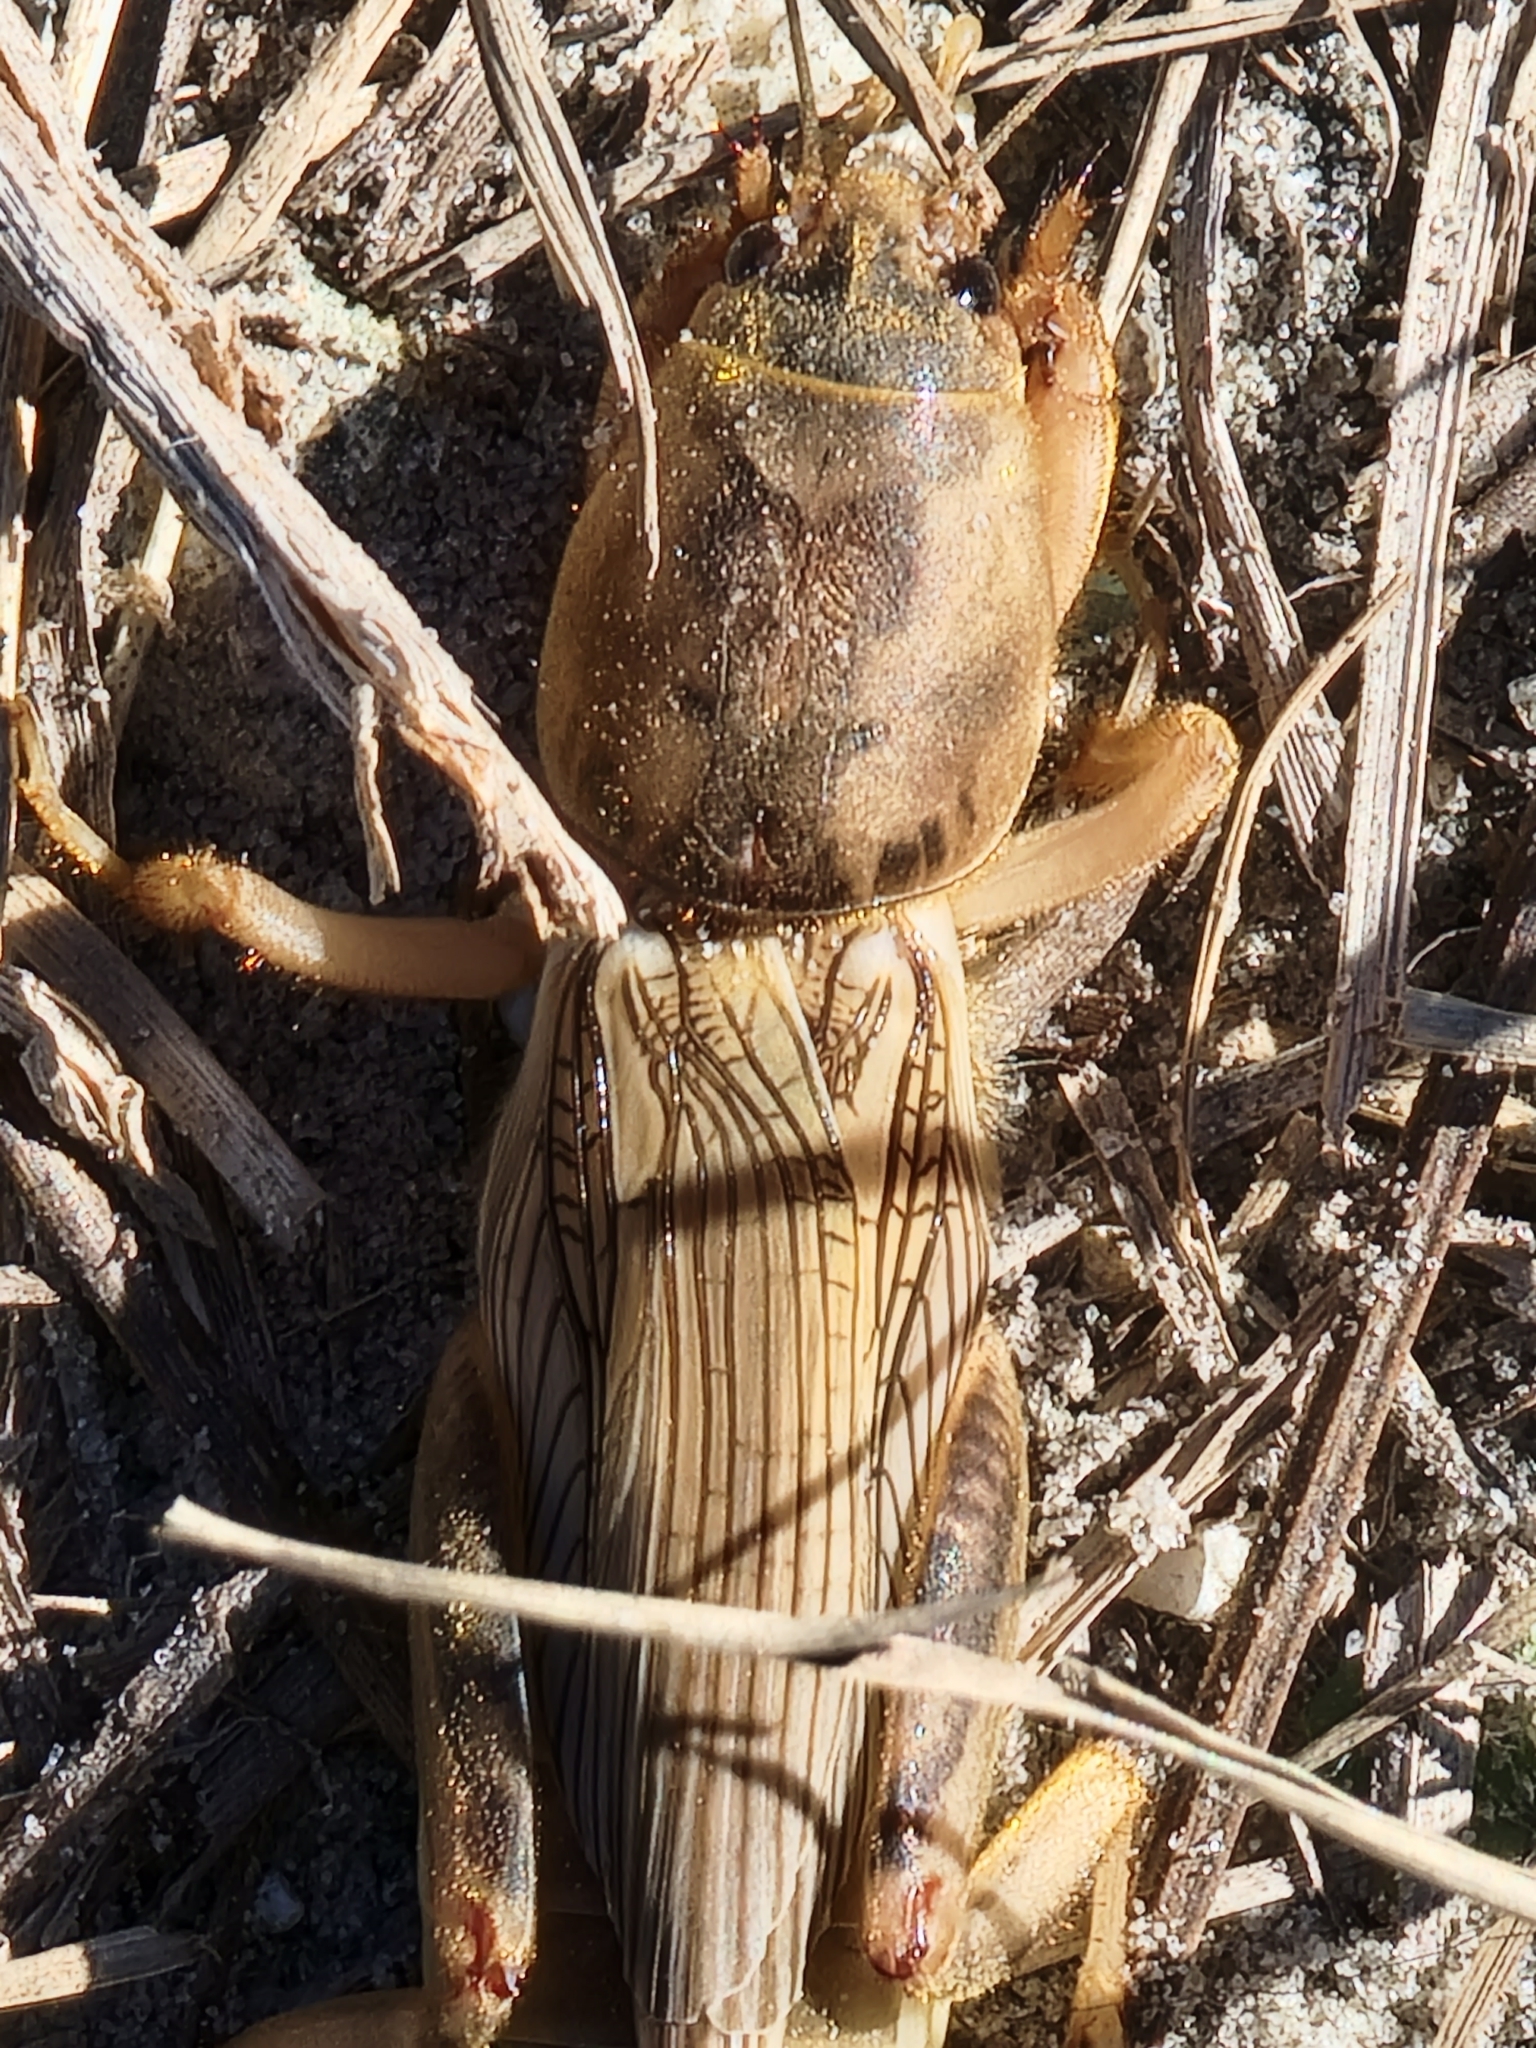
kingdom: Animalia
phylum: Arthropoda
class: Insecta
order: Orthoptera
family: Gryllotalpidae
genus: Neoscapteriscus
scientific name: Neoscapteriscus vicinus
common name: Tawny mole cricket
